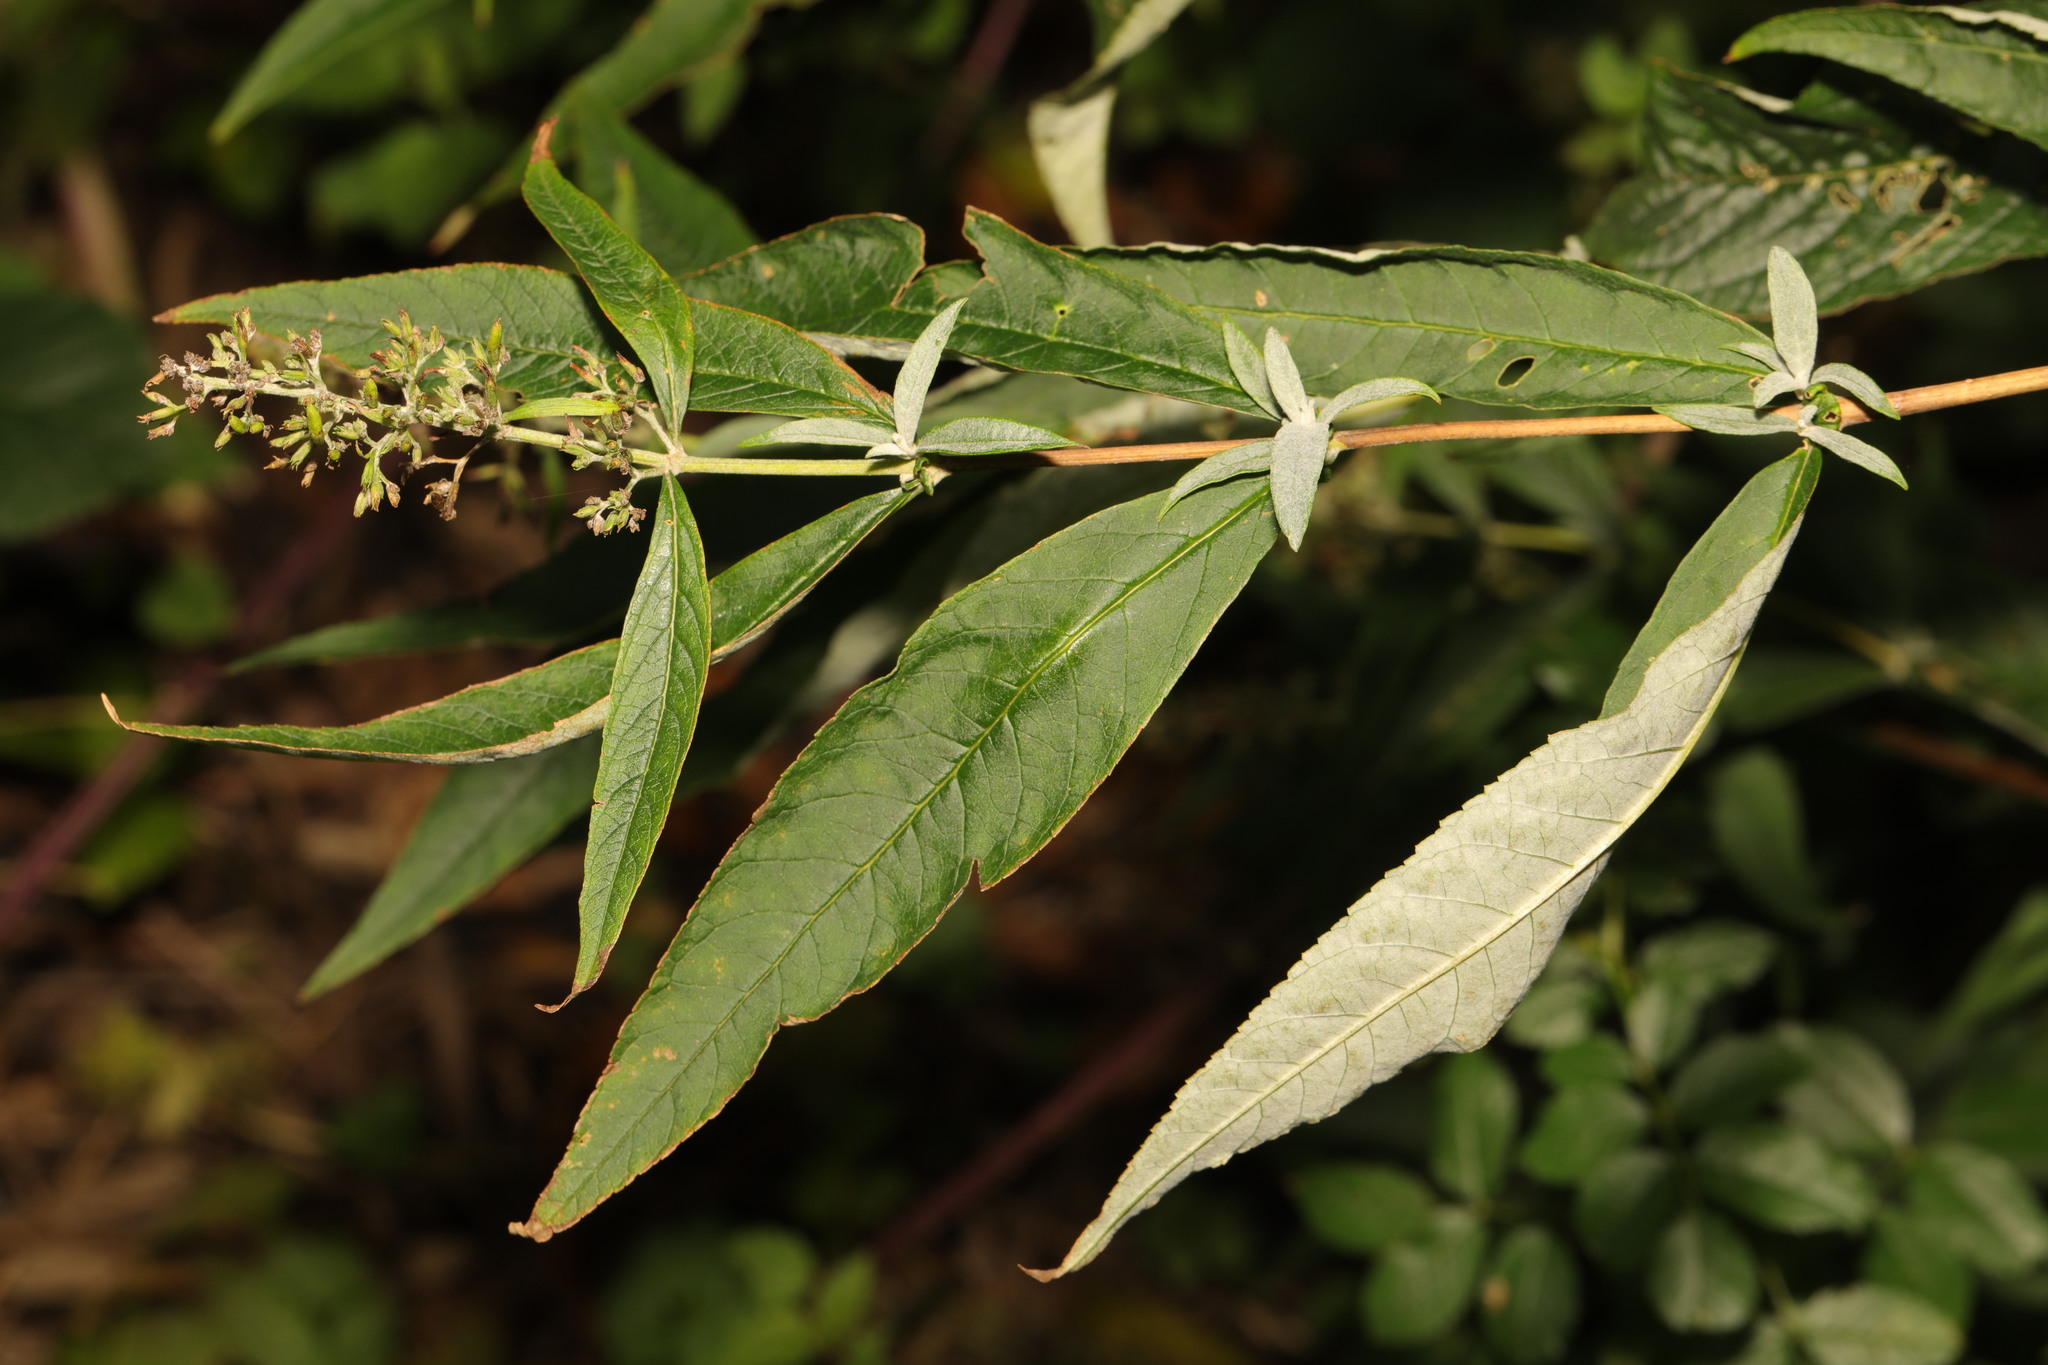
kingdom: Plantae
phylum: Tracheophyta
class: Magnoliopsida
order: Lamiales
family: Scrophulariaceae
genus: Buddleja
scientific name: Buddleja davidii
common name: Butterfly-bush
